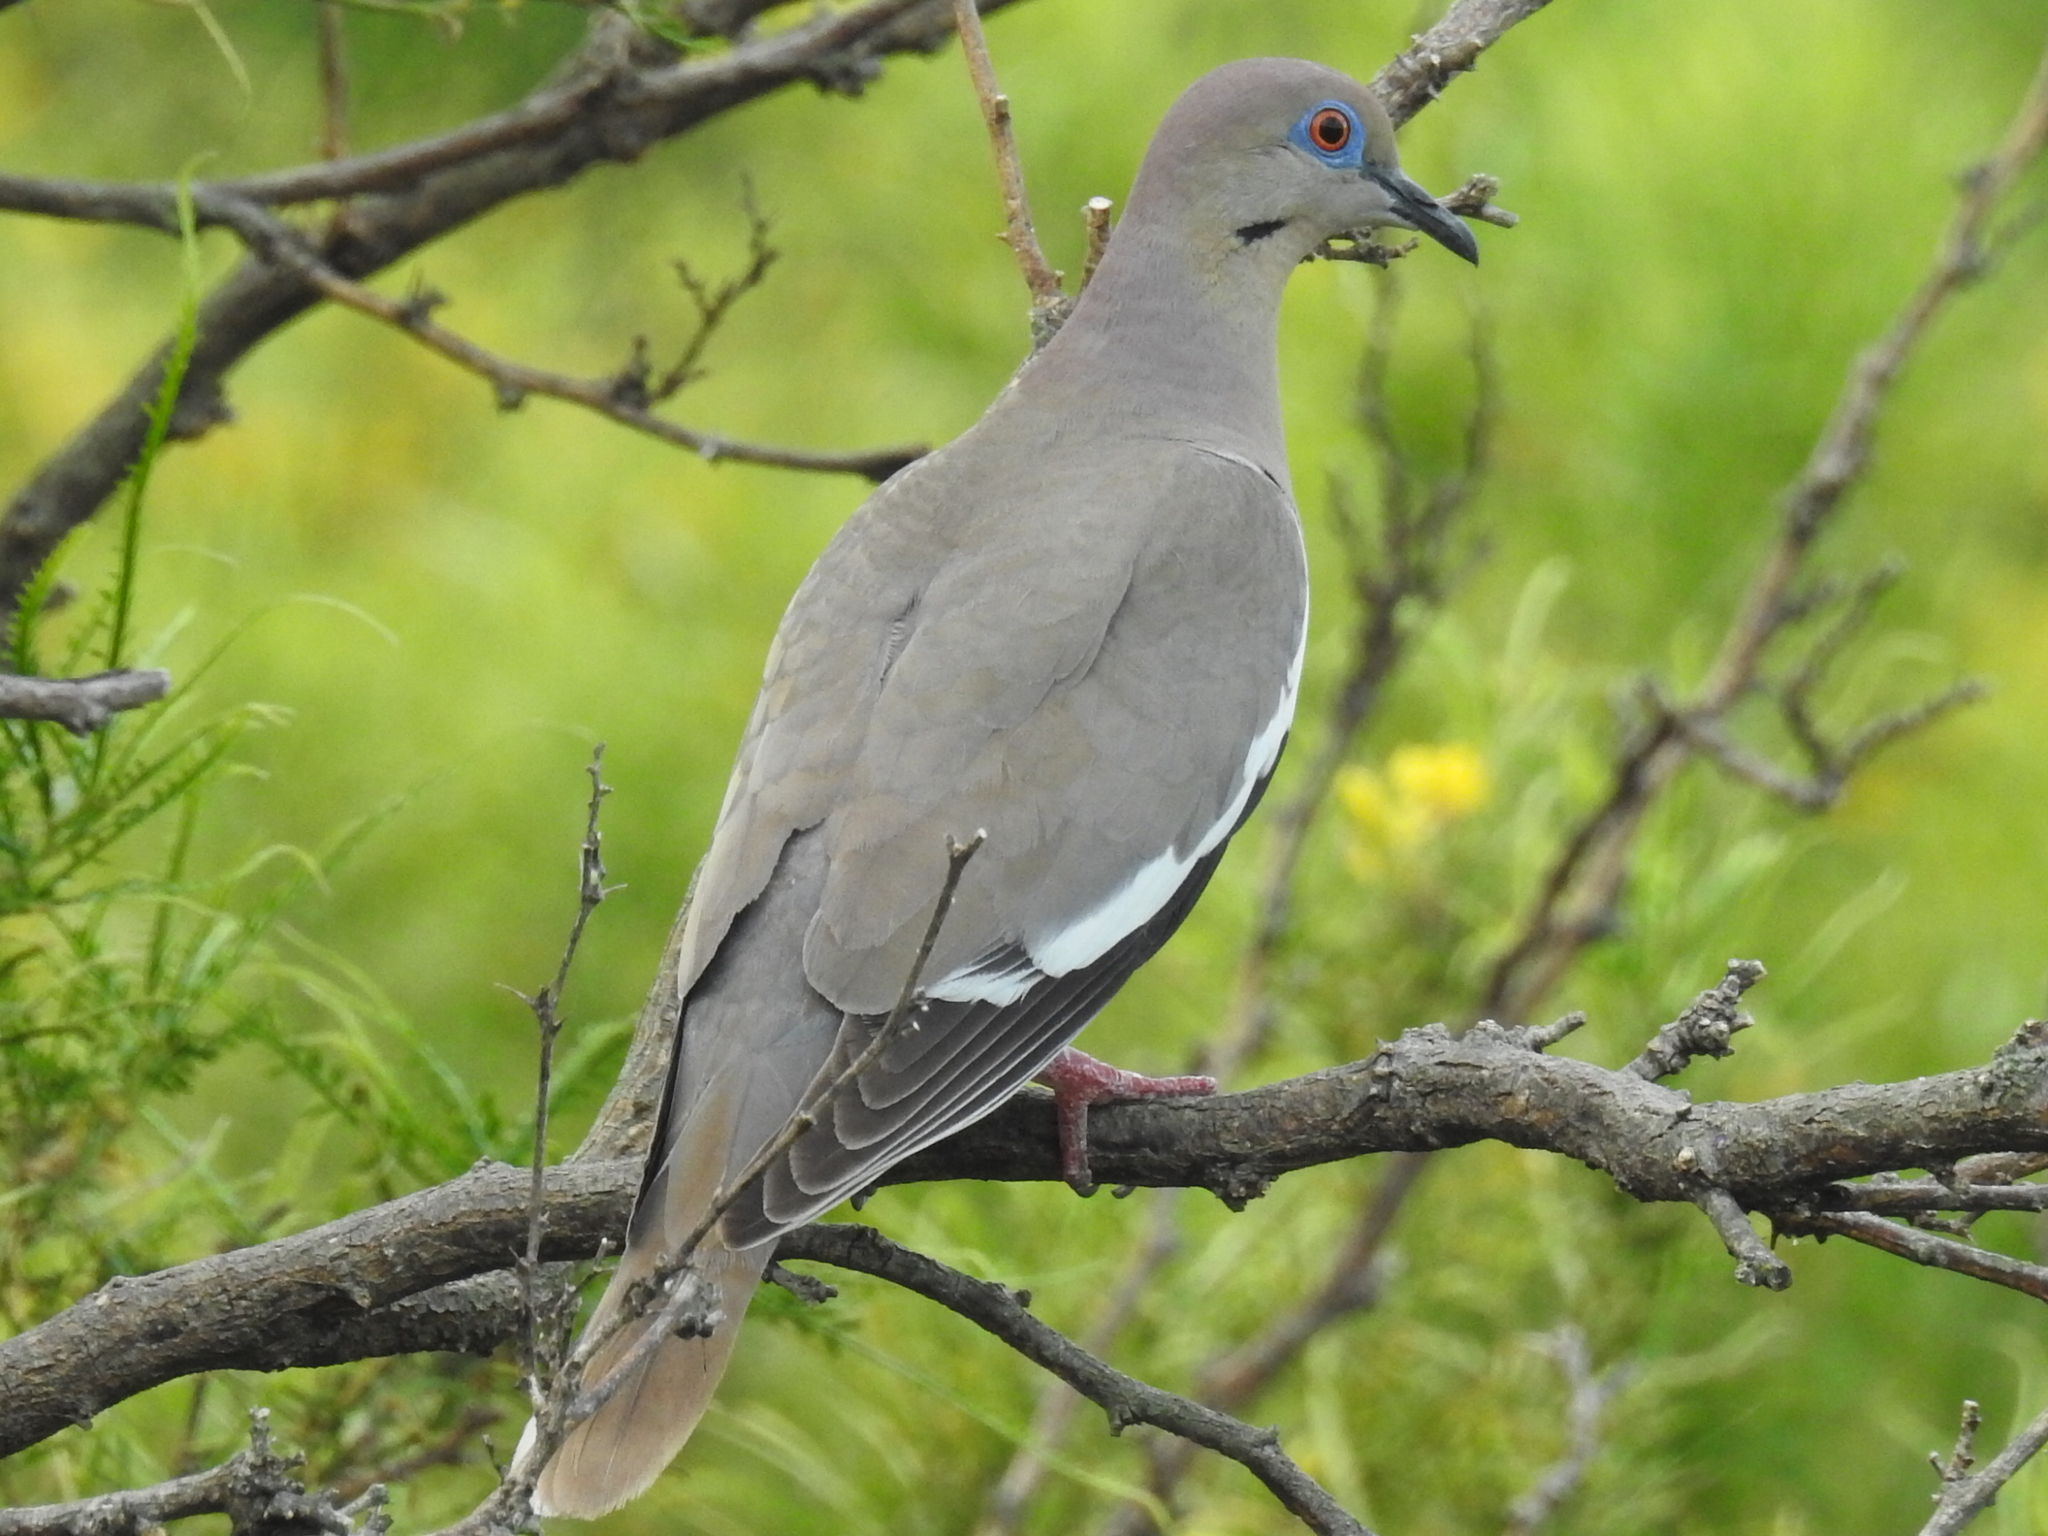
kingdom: Animalia
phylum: Chordata
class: Aves
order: Columbiformes
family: Columbidae
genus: Zenaida
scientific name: Zenaida asiatica
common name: White-winged dove
